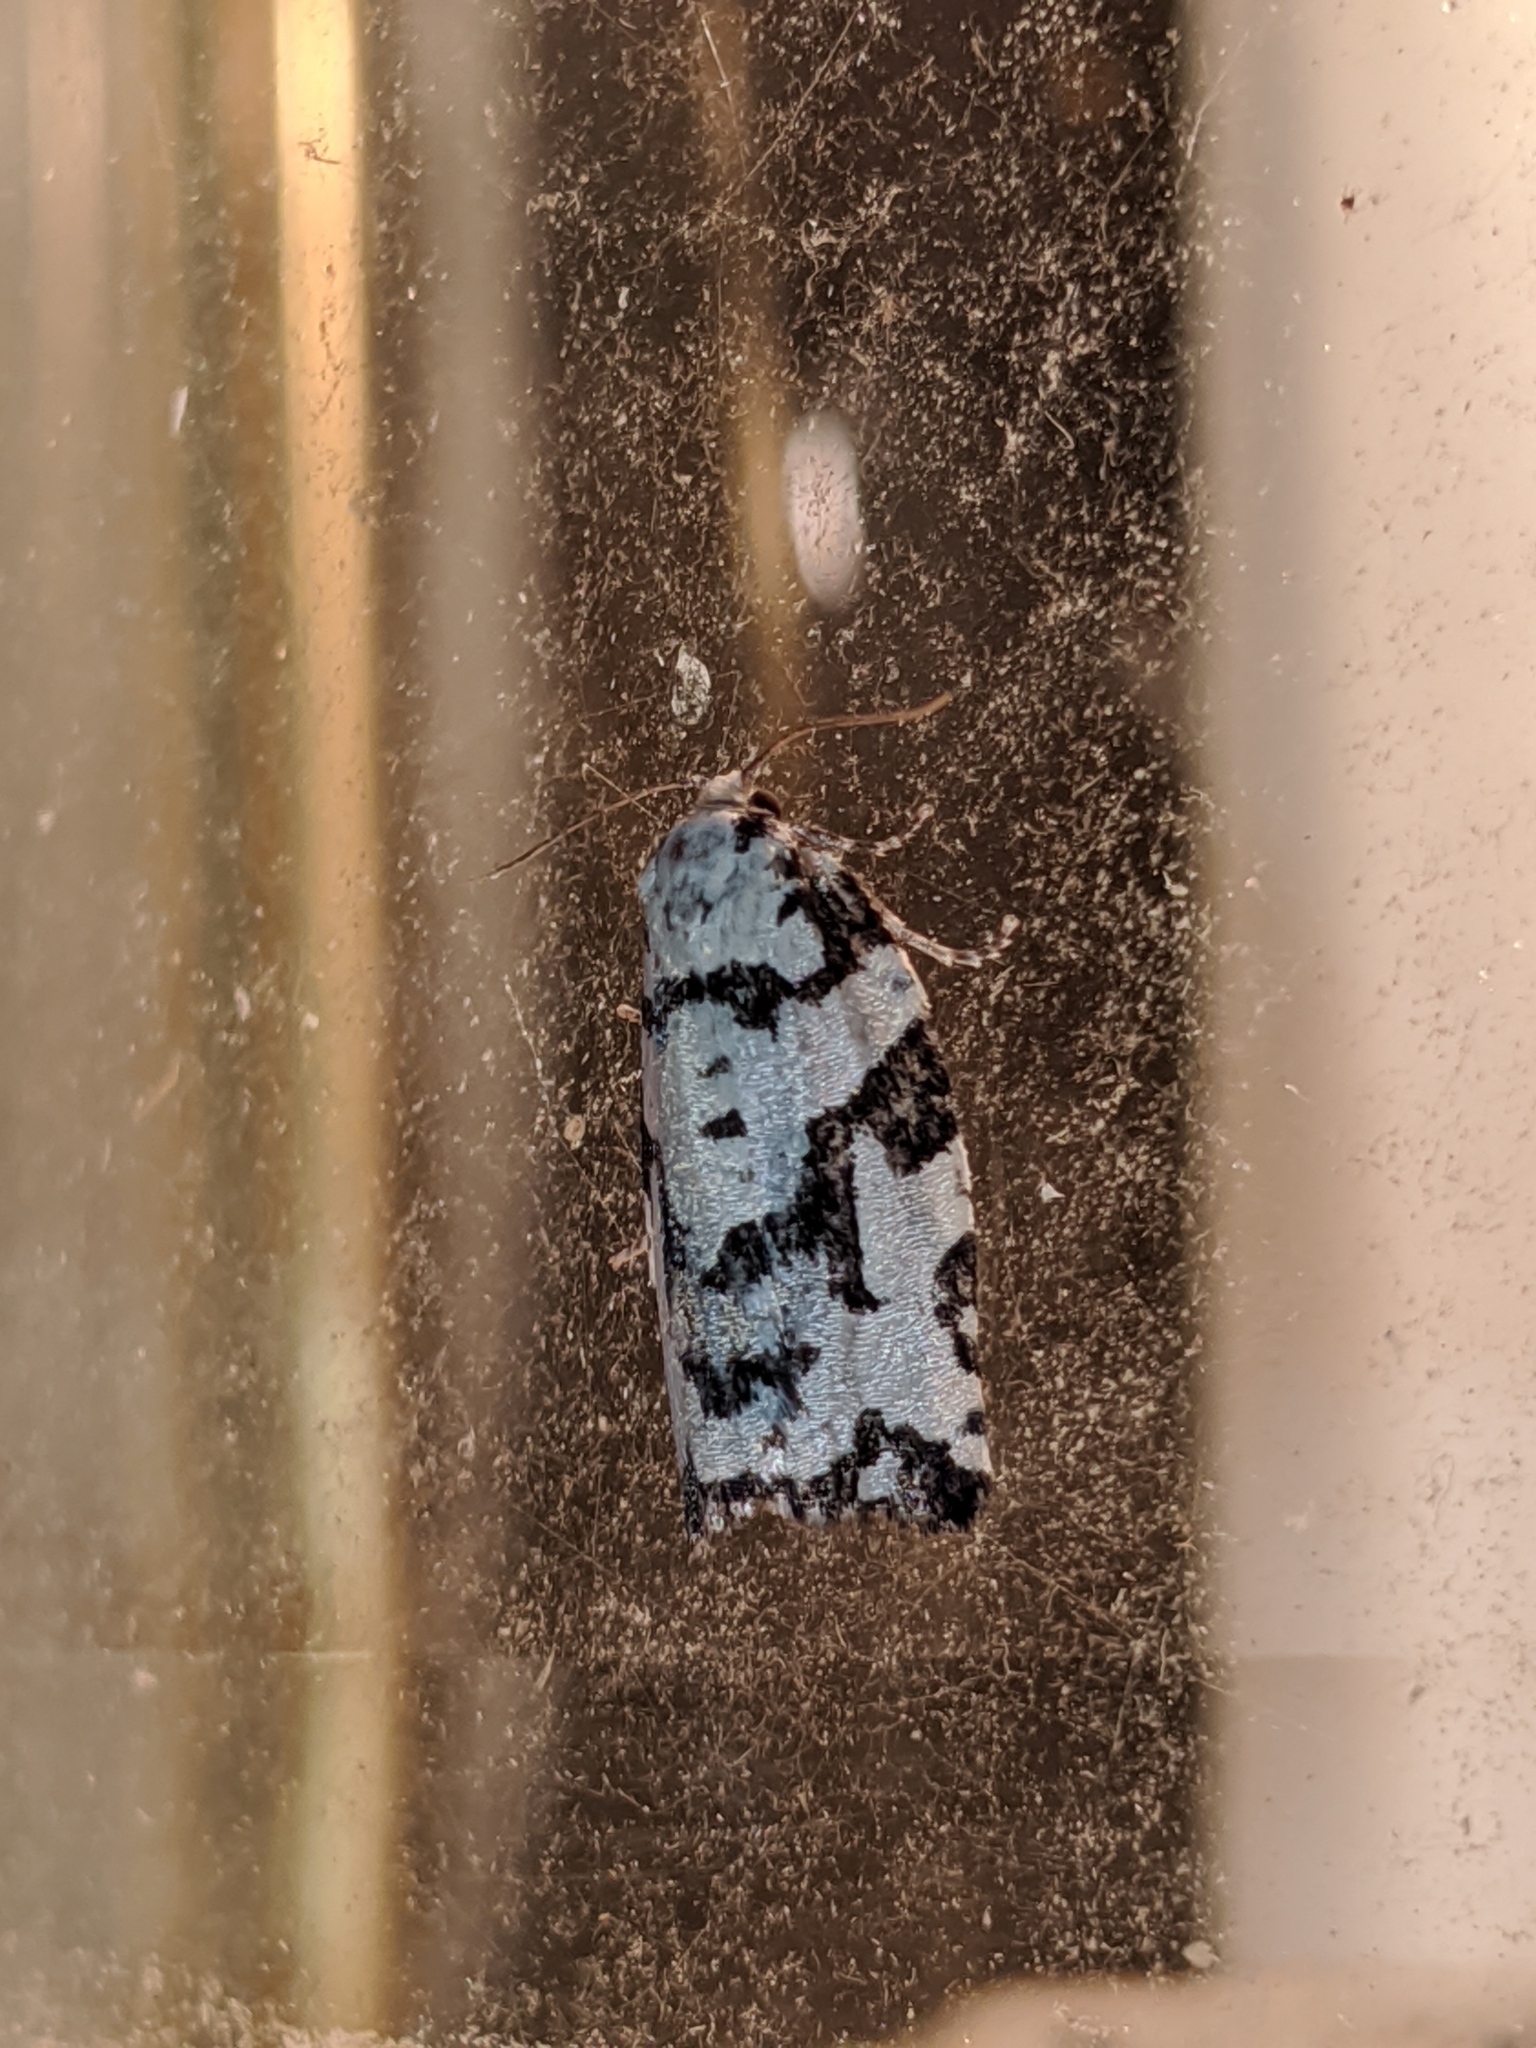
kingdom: Animalia
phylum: Arthropoda
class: Insecta
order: Lepidoptera
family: Tortricidae
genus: Archips
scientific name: Archips dissitana
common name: Boldly-marked archips moth
